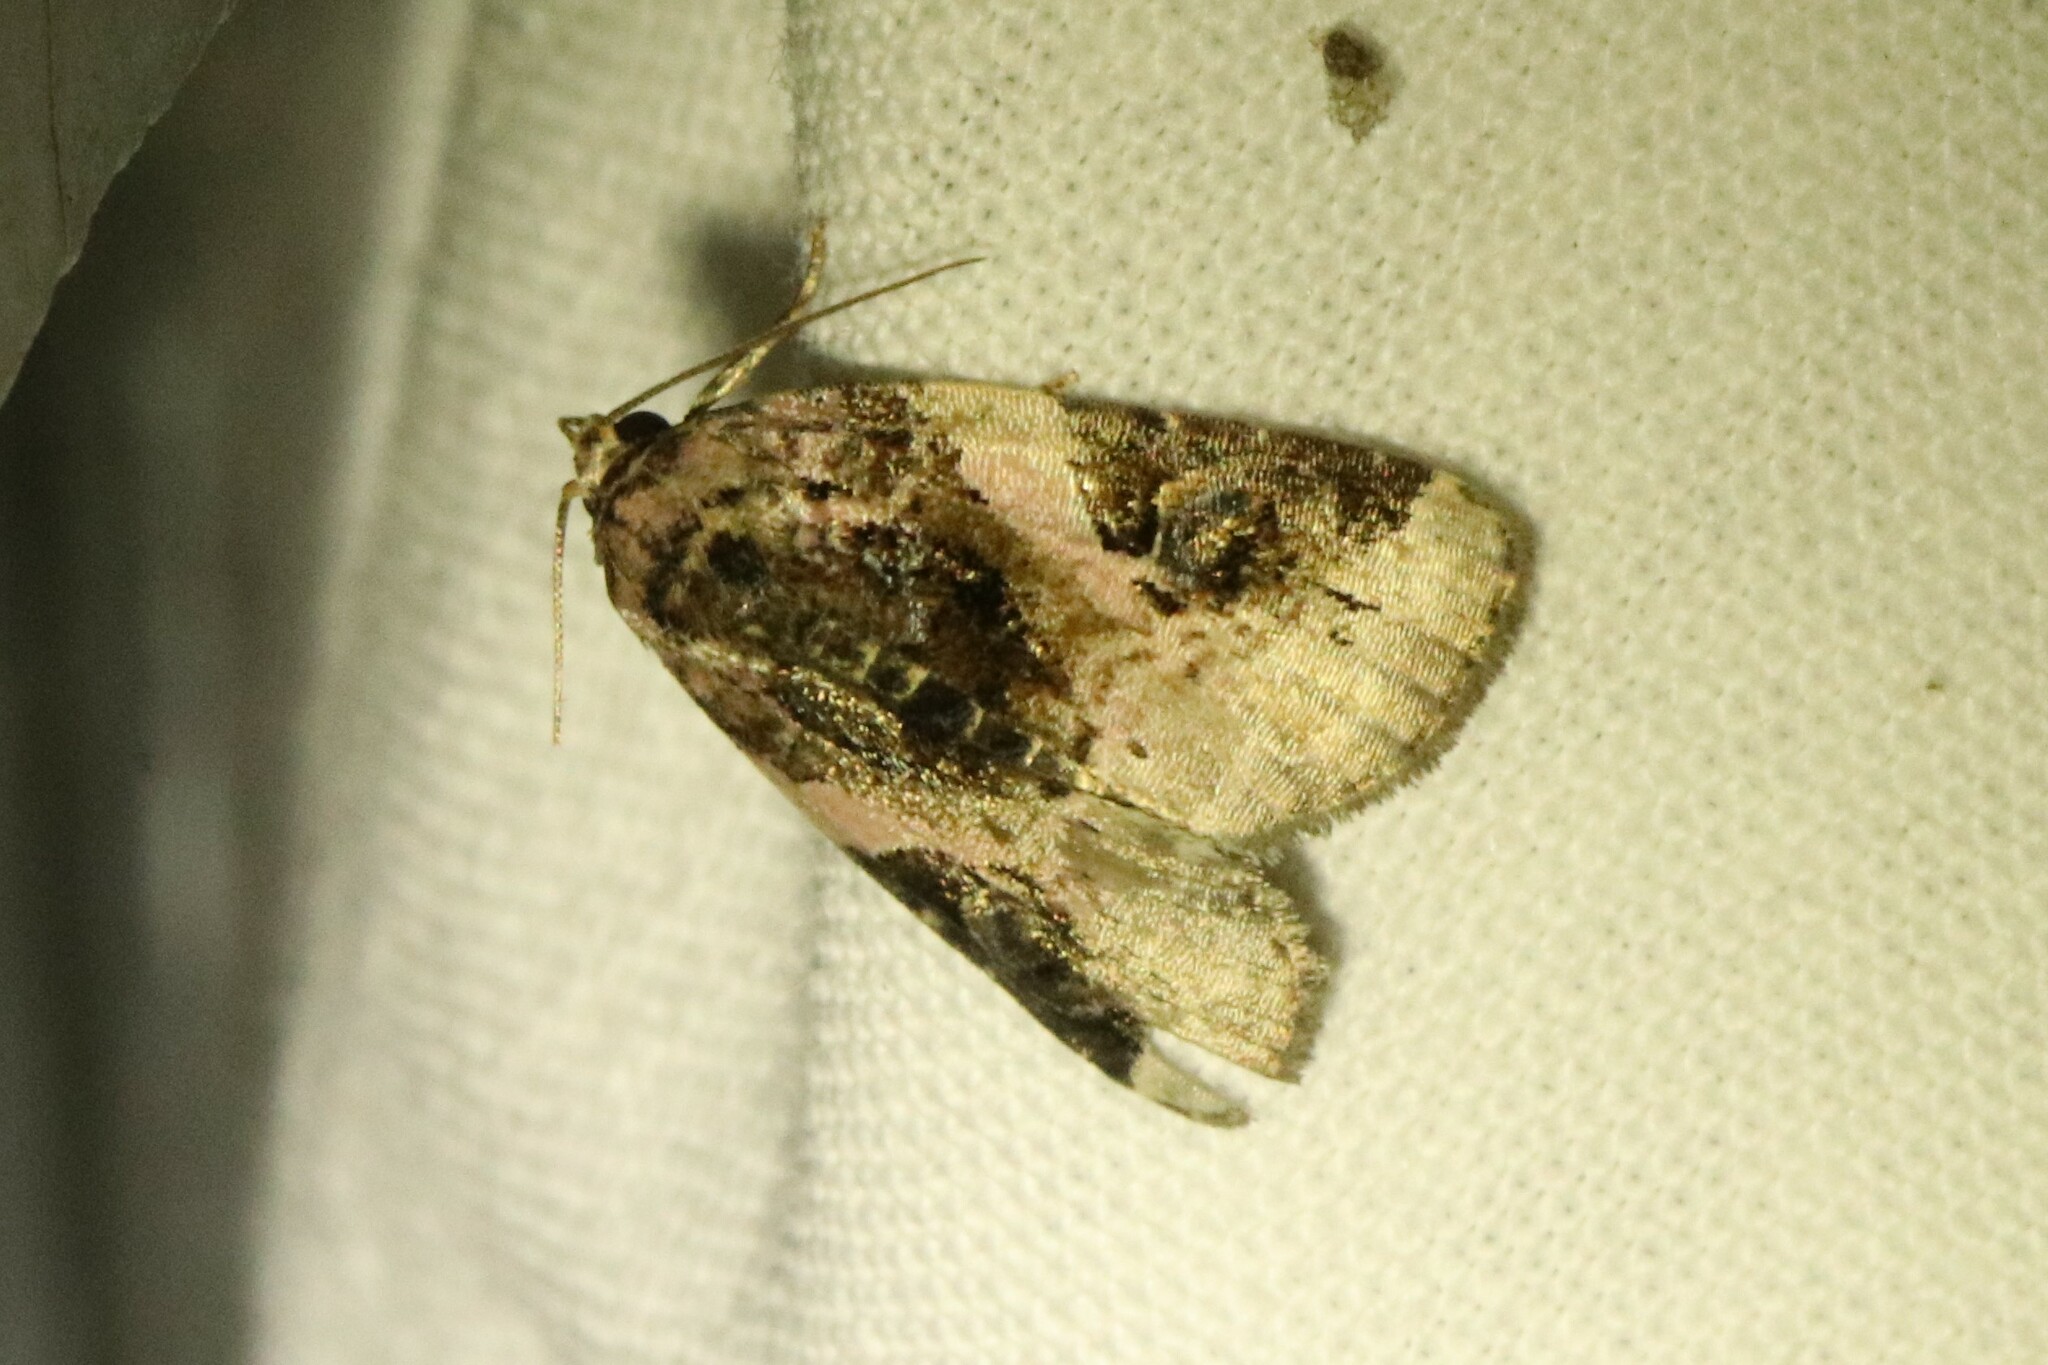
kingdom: Animalia
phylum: Arthropoda
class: Insecta
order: Lepidoptera
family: Noctuidae
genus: Pseudeustrotia
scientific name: Pseudeustrotia carneola
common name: Pink-barred lithacodia moth
